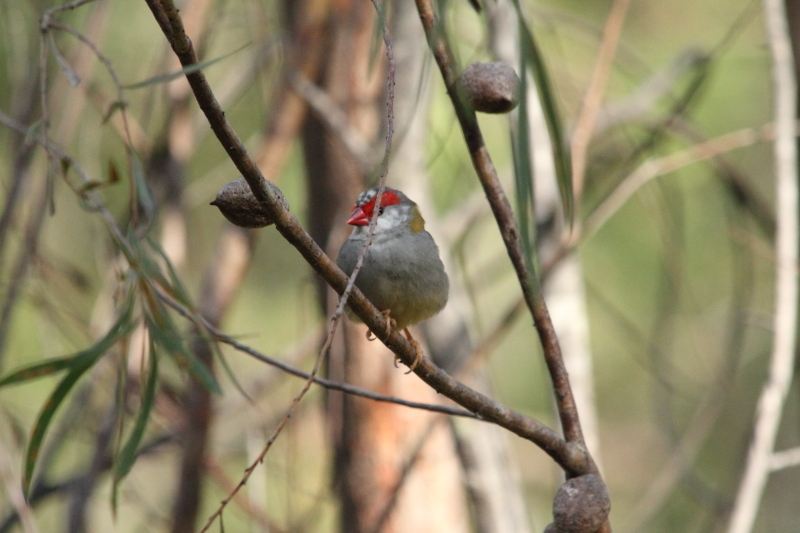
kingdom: Animalia
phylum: Chordata
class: Aves
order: Passeriformes
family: Estrildidae
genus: Neochmia
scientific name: Neochmia temporalis
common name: Red-browed finch
